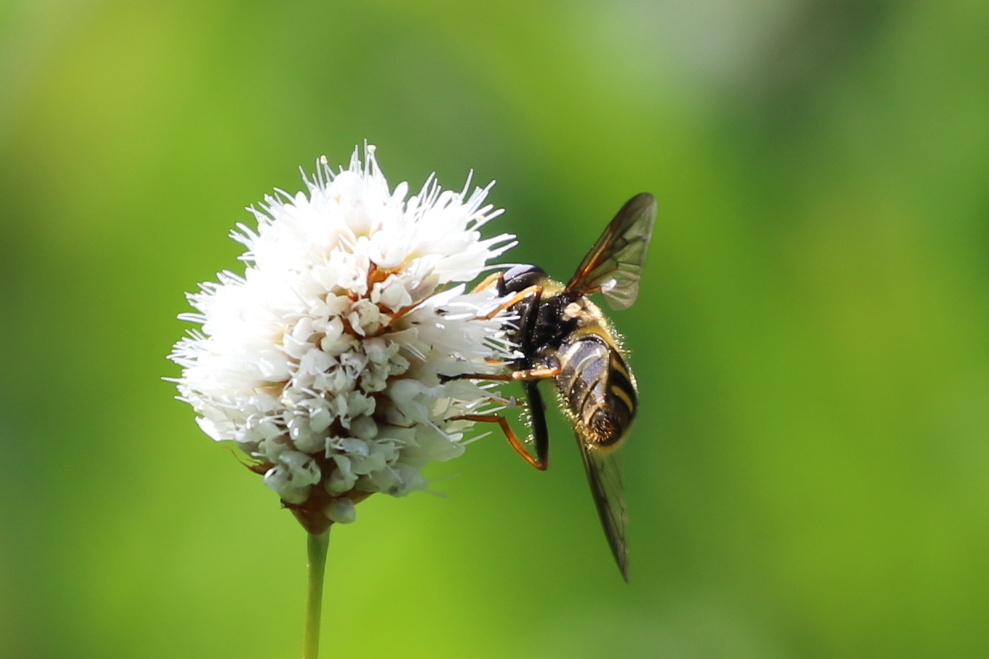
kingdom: Animalia
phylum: Arthropoda
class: Insecta
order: Diptera
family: Syrphidae
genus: Sericomyia
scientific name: Sericomyia chalcopyga
